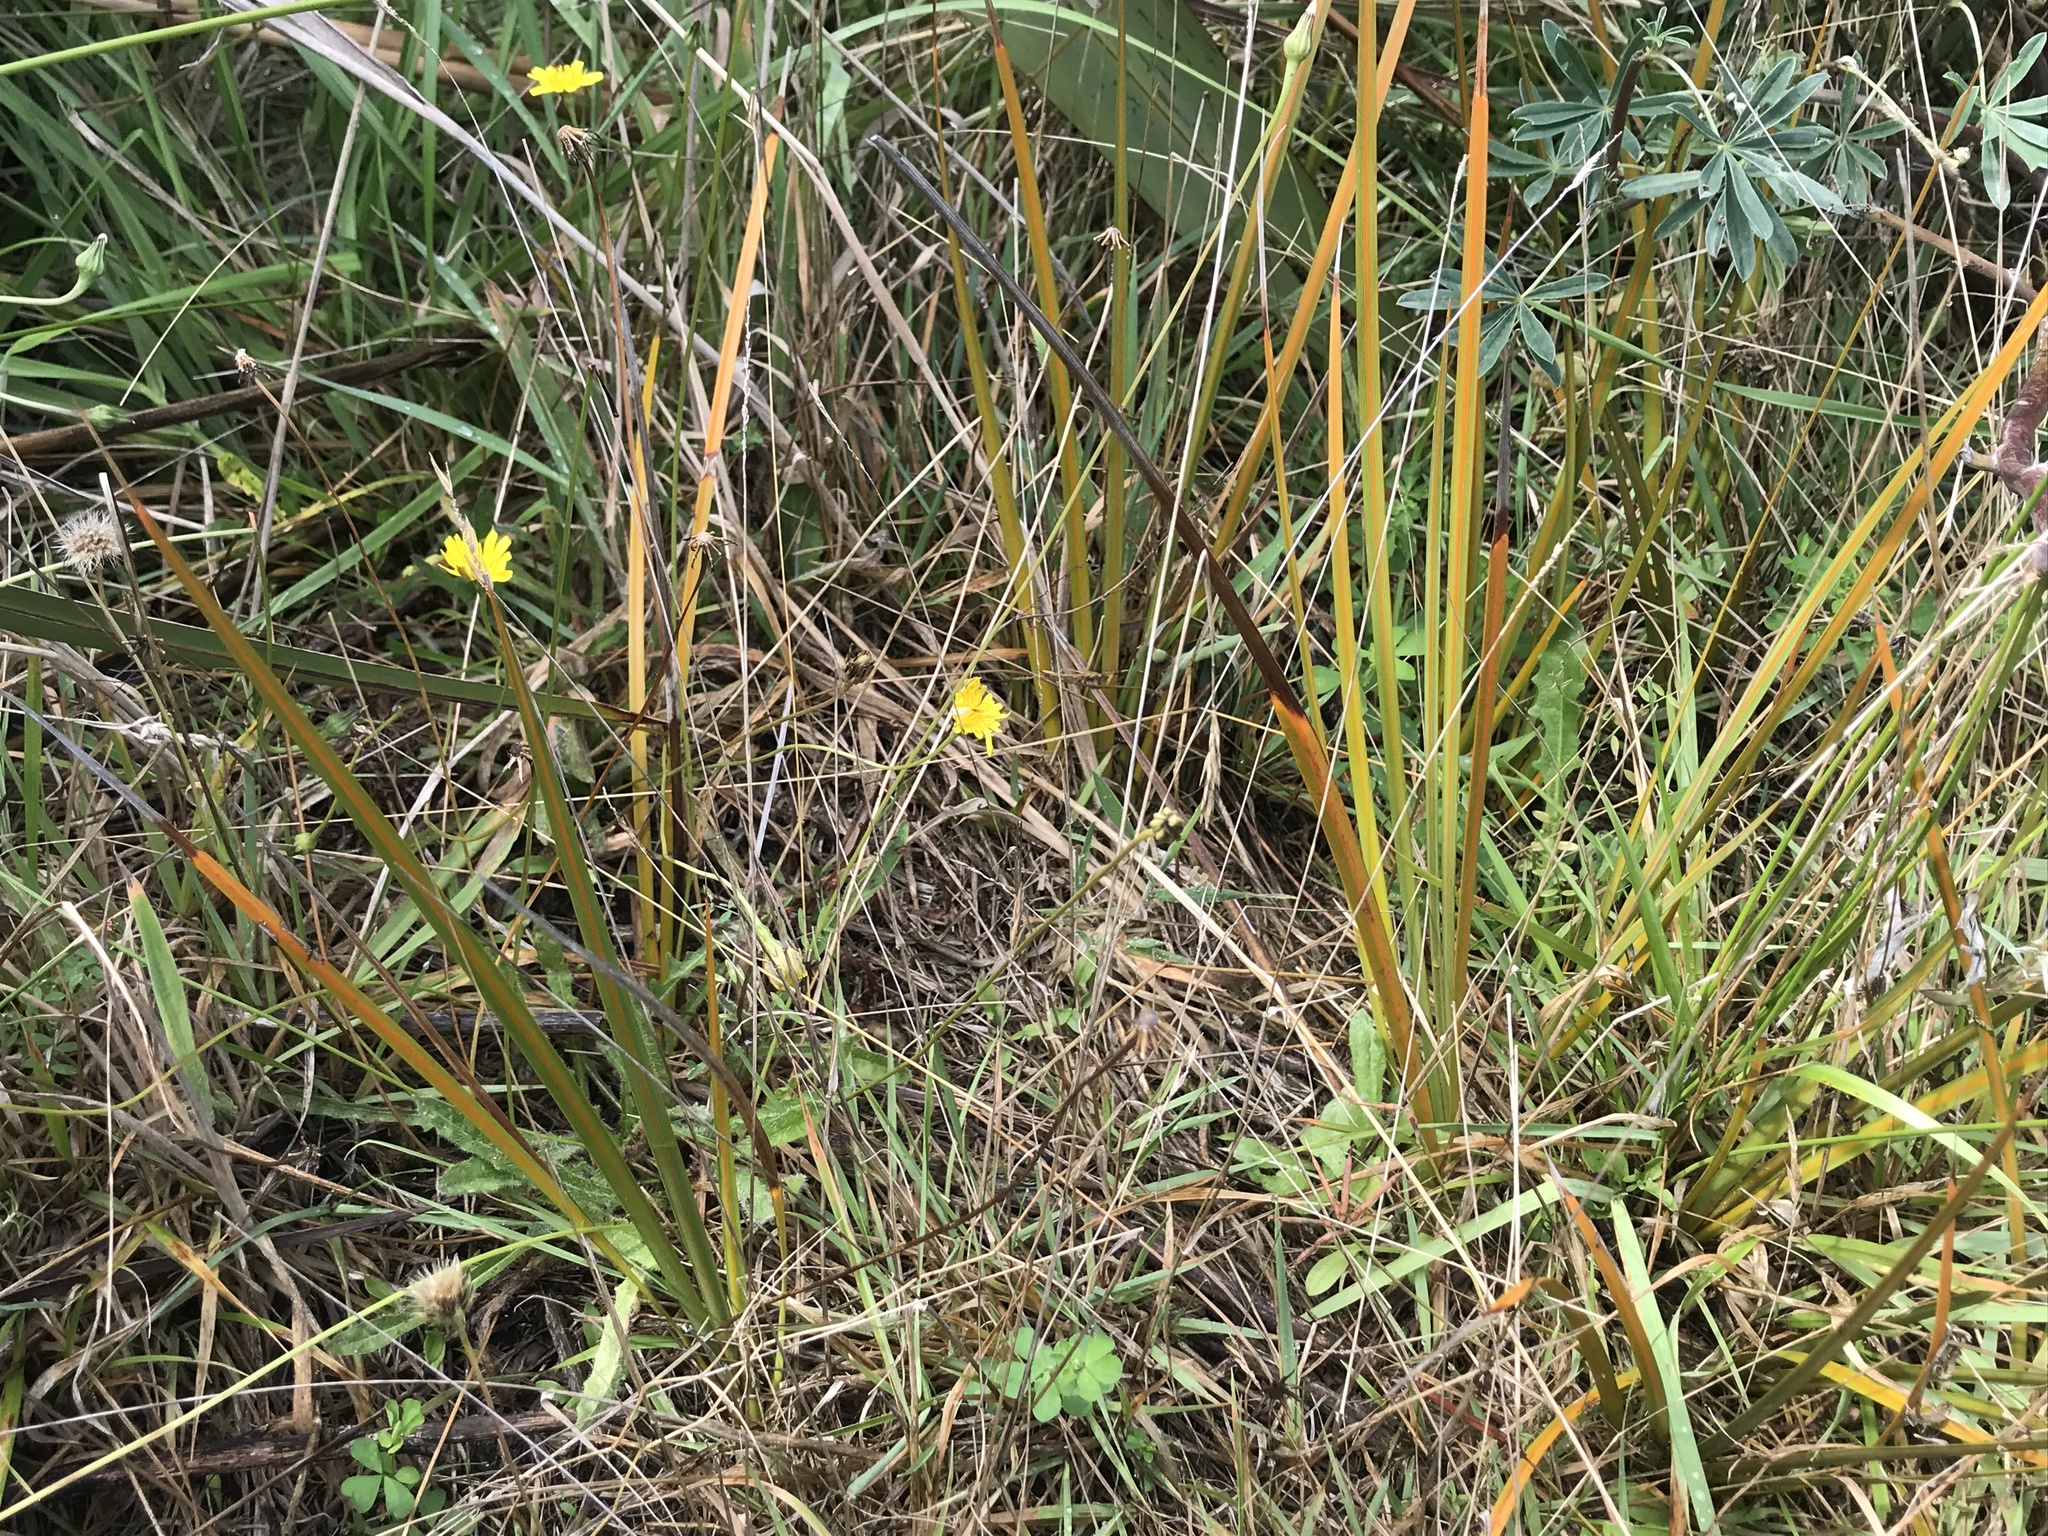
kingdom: Plantae
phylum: Tracheophyta
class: Liliopsida
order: Asparagales
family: Iridaceae
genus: Libertia
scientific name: Libertia grandiflora
